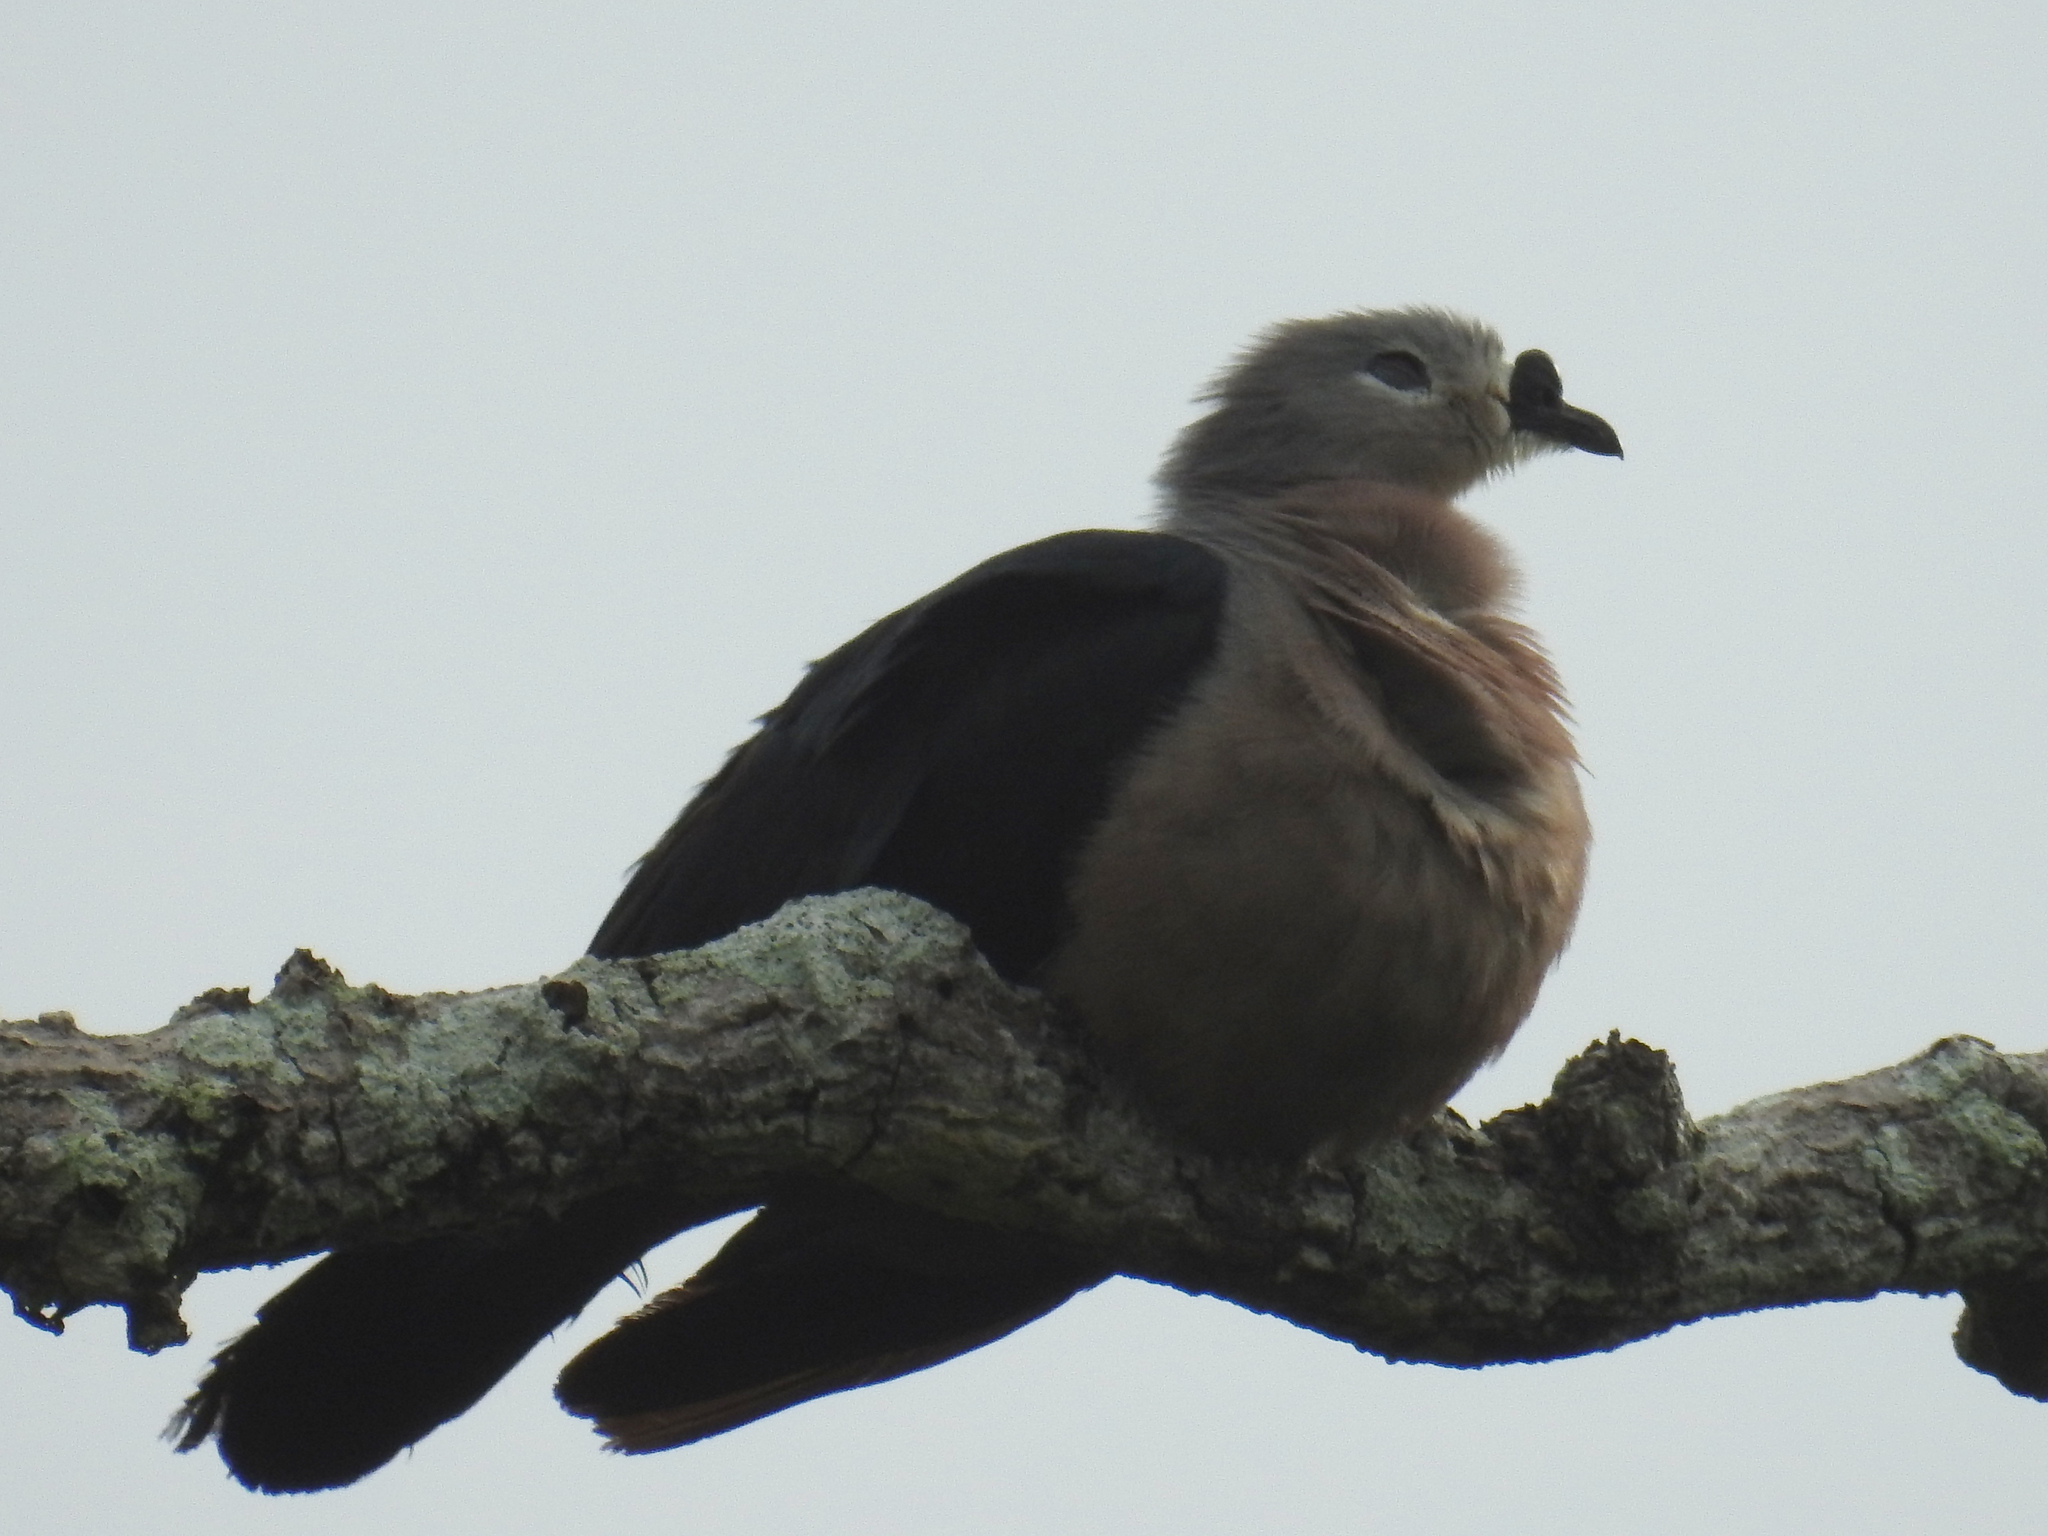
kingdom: Animalia
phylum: Chordata
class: Aves
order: Columbiformes
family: Columbidae
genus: Ducula
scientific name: Ducula pacifica
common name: Pacific imperial-pigeon
